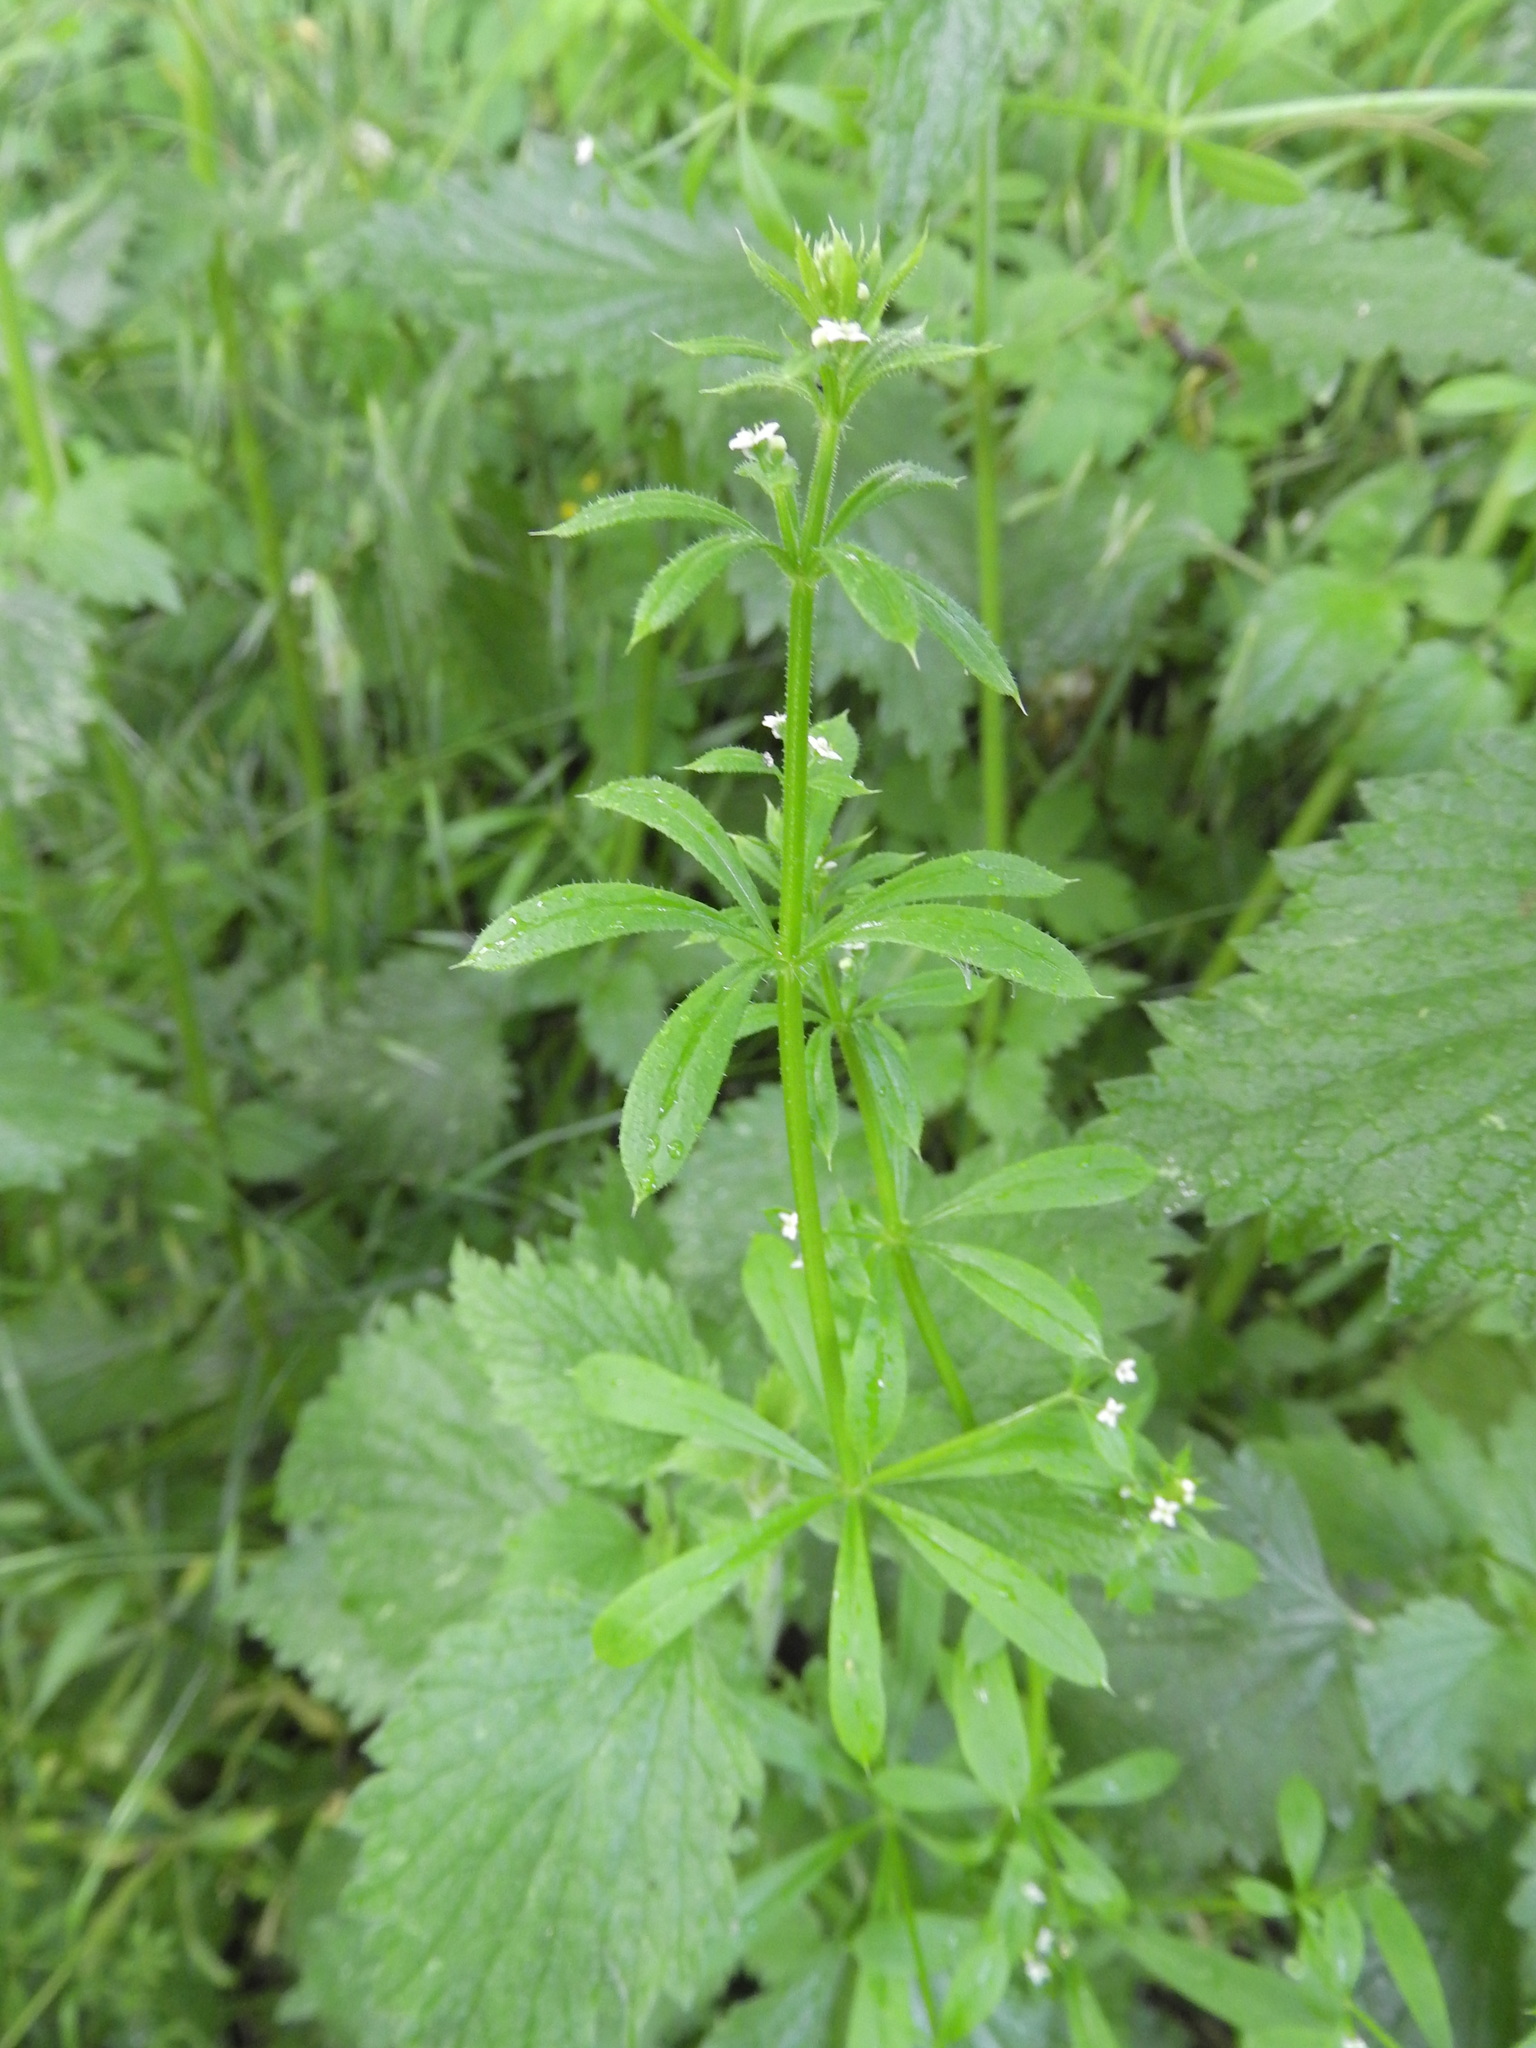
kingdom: Plantae
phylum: Tracheophyta
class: Magnoliopsida
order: Gentianales
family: Rubiaceae
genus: Galium
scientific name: Galium aparine
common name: Cleavers
